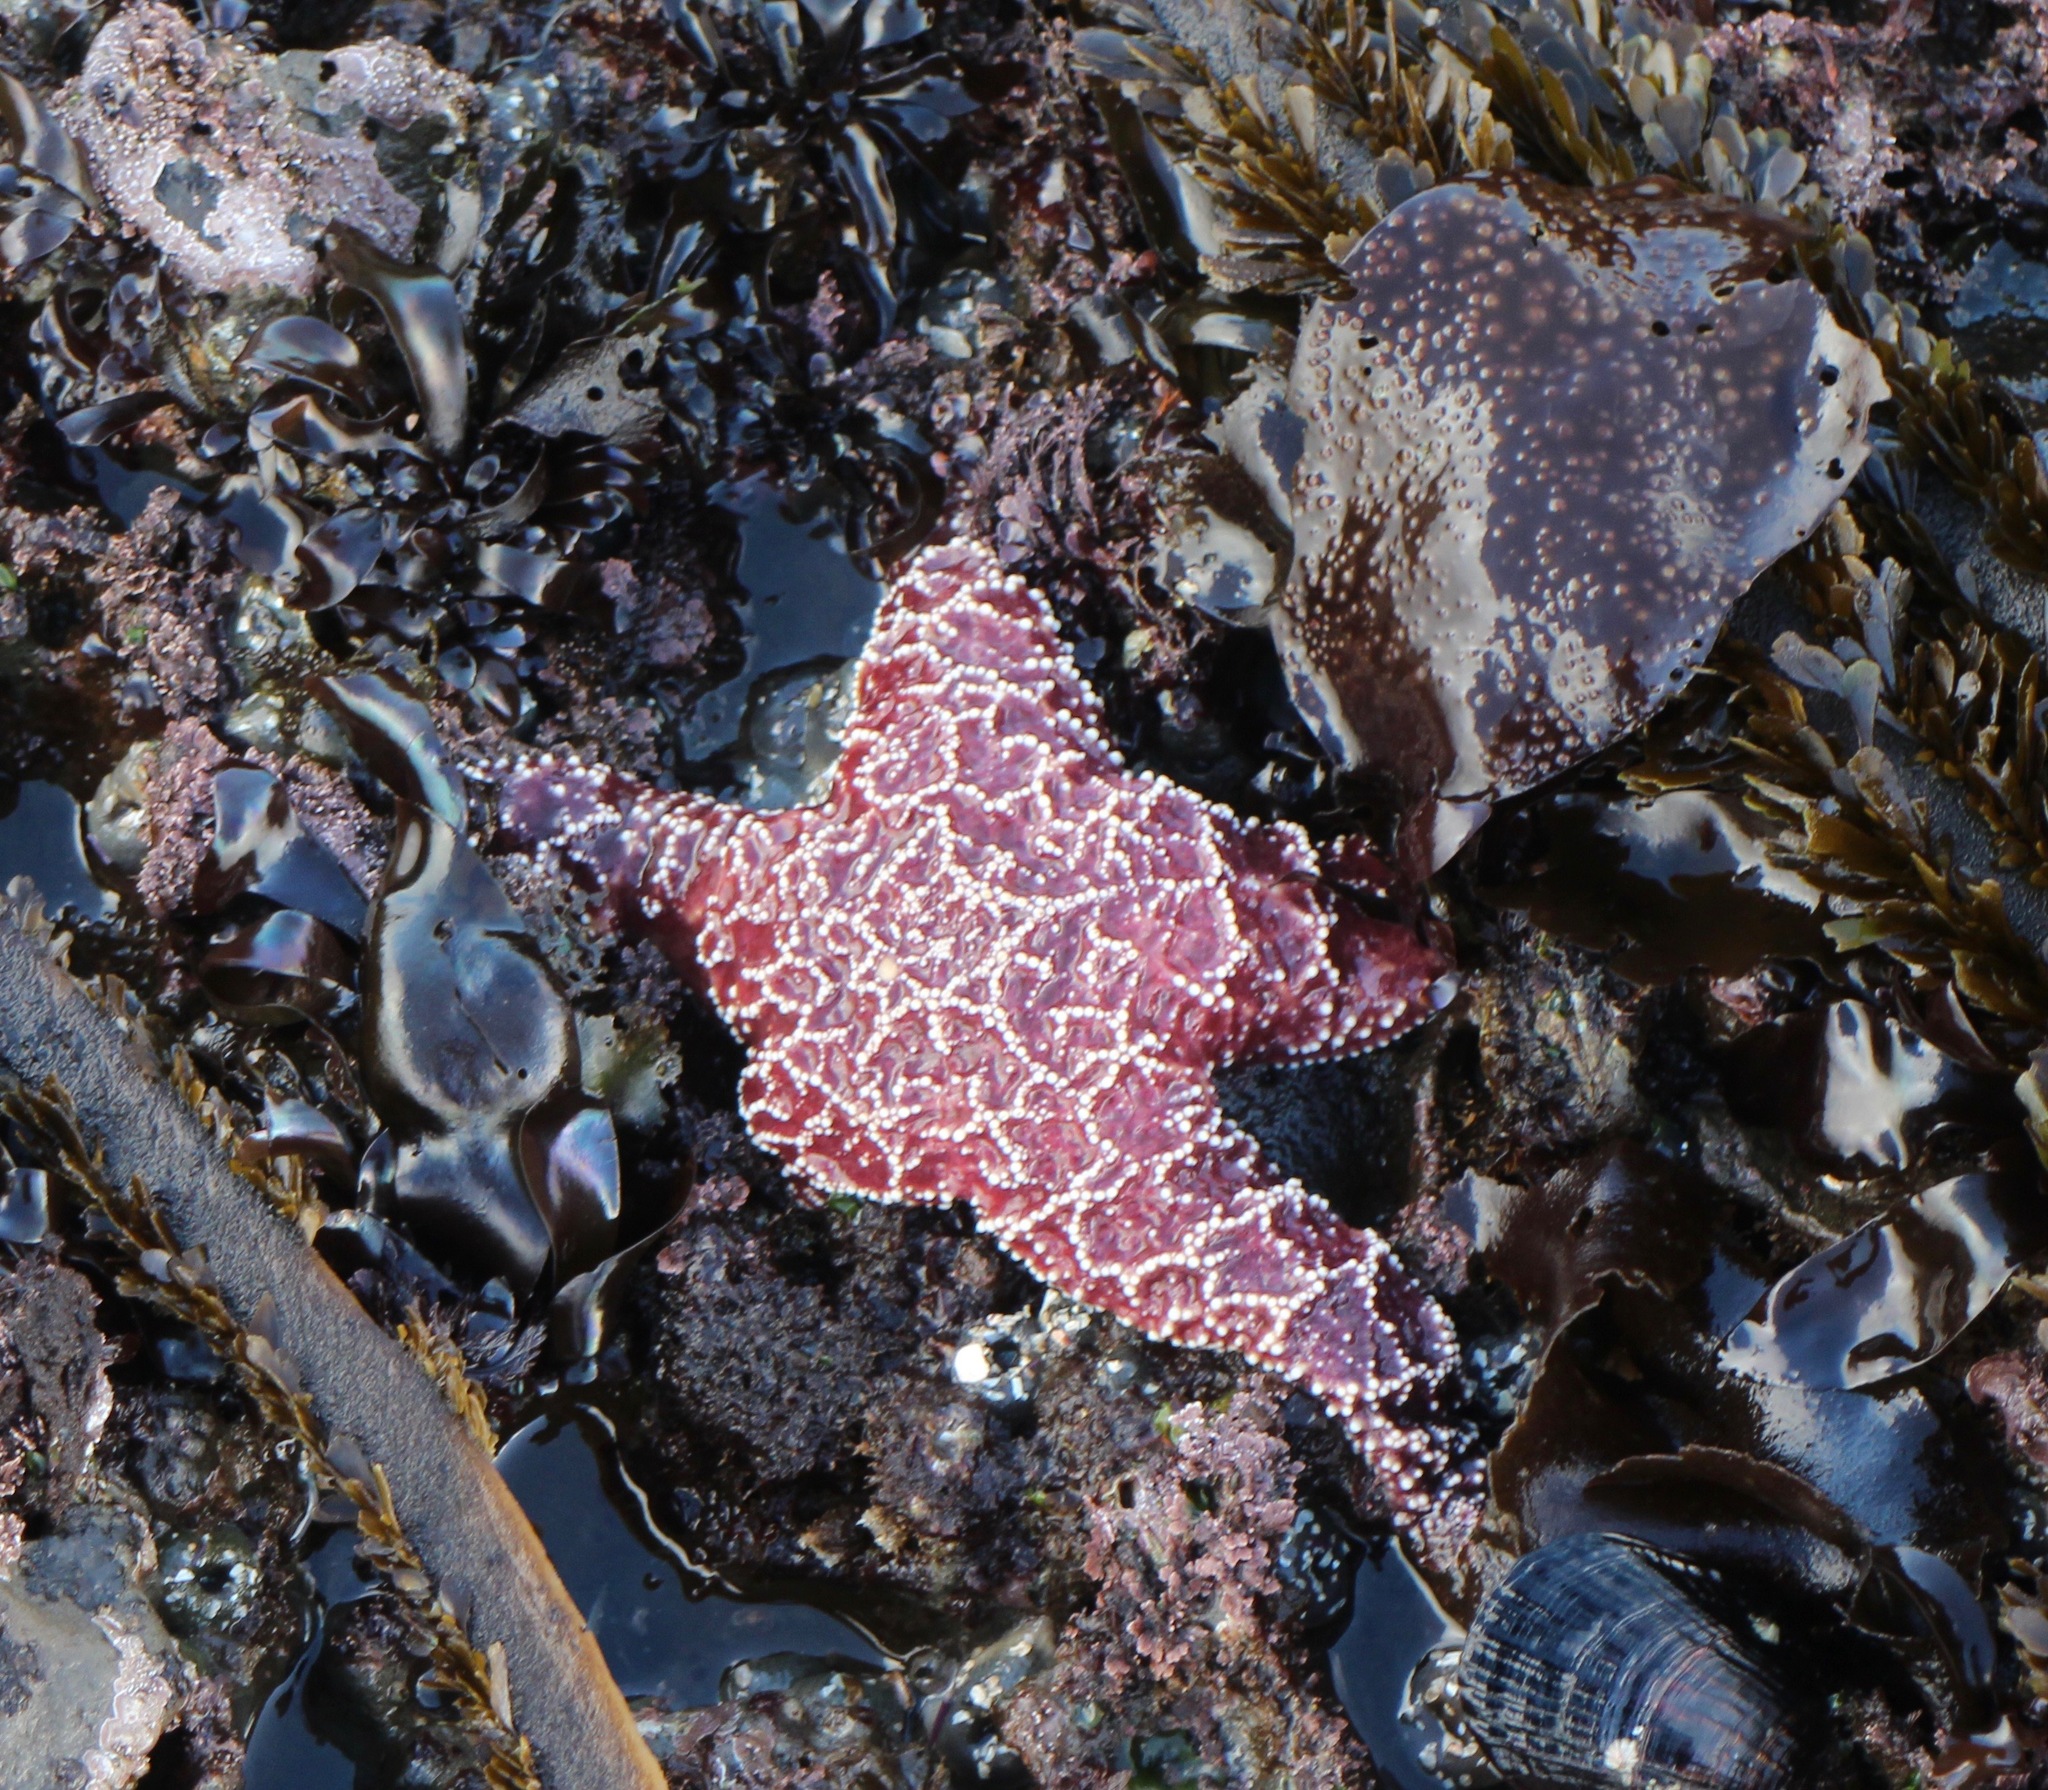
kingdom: Animalia
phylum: Echinodermata
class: Asteroidea
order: Forcipulatida
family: Asteriidae
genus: Pisaster
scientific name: Pisaster ochraceus
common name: Ochre stars
